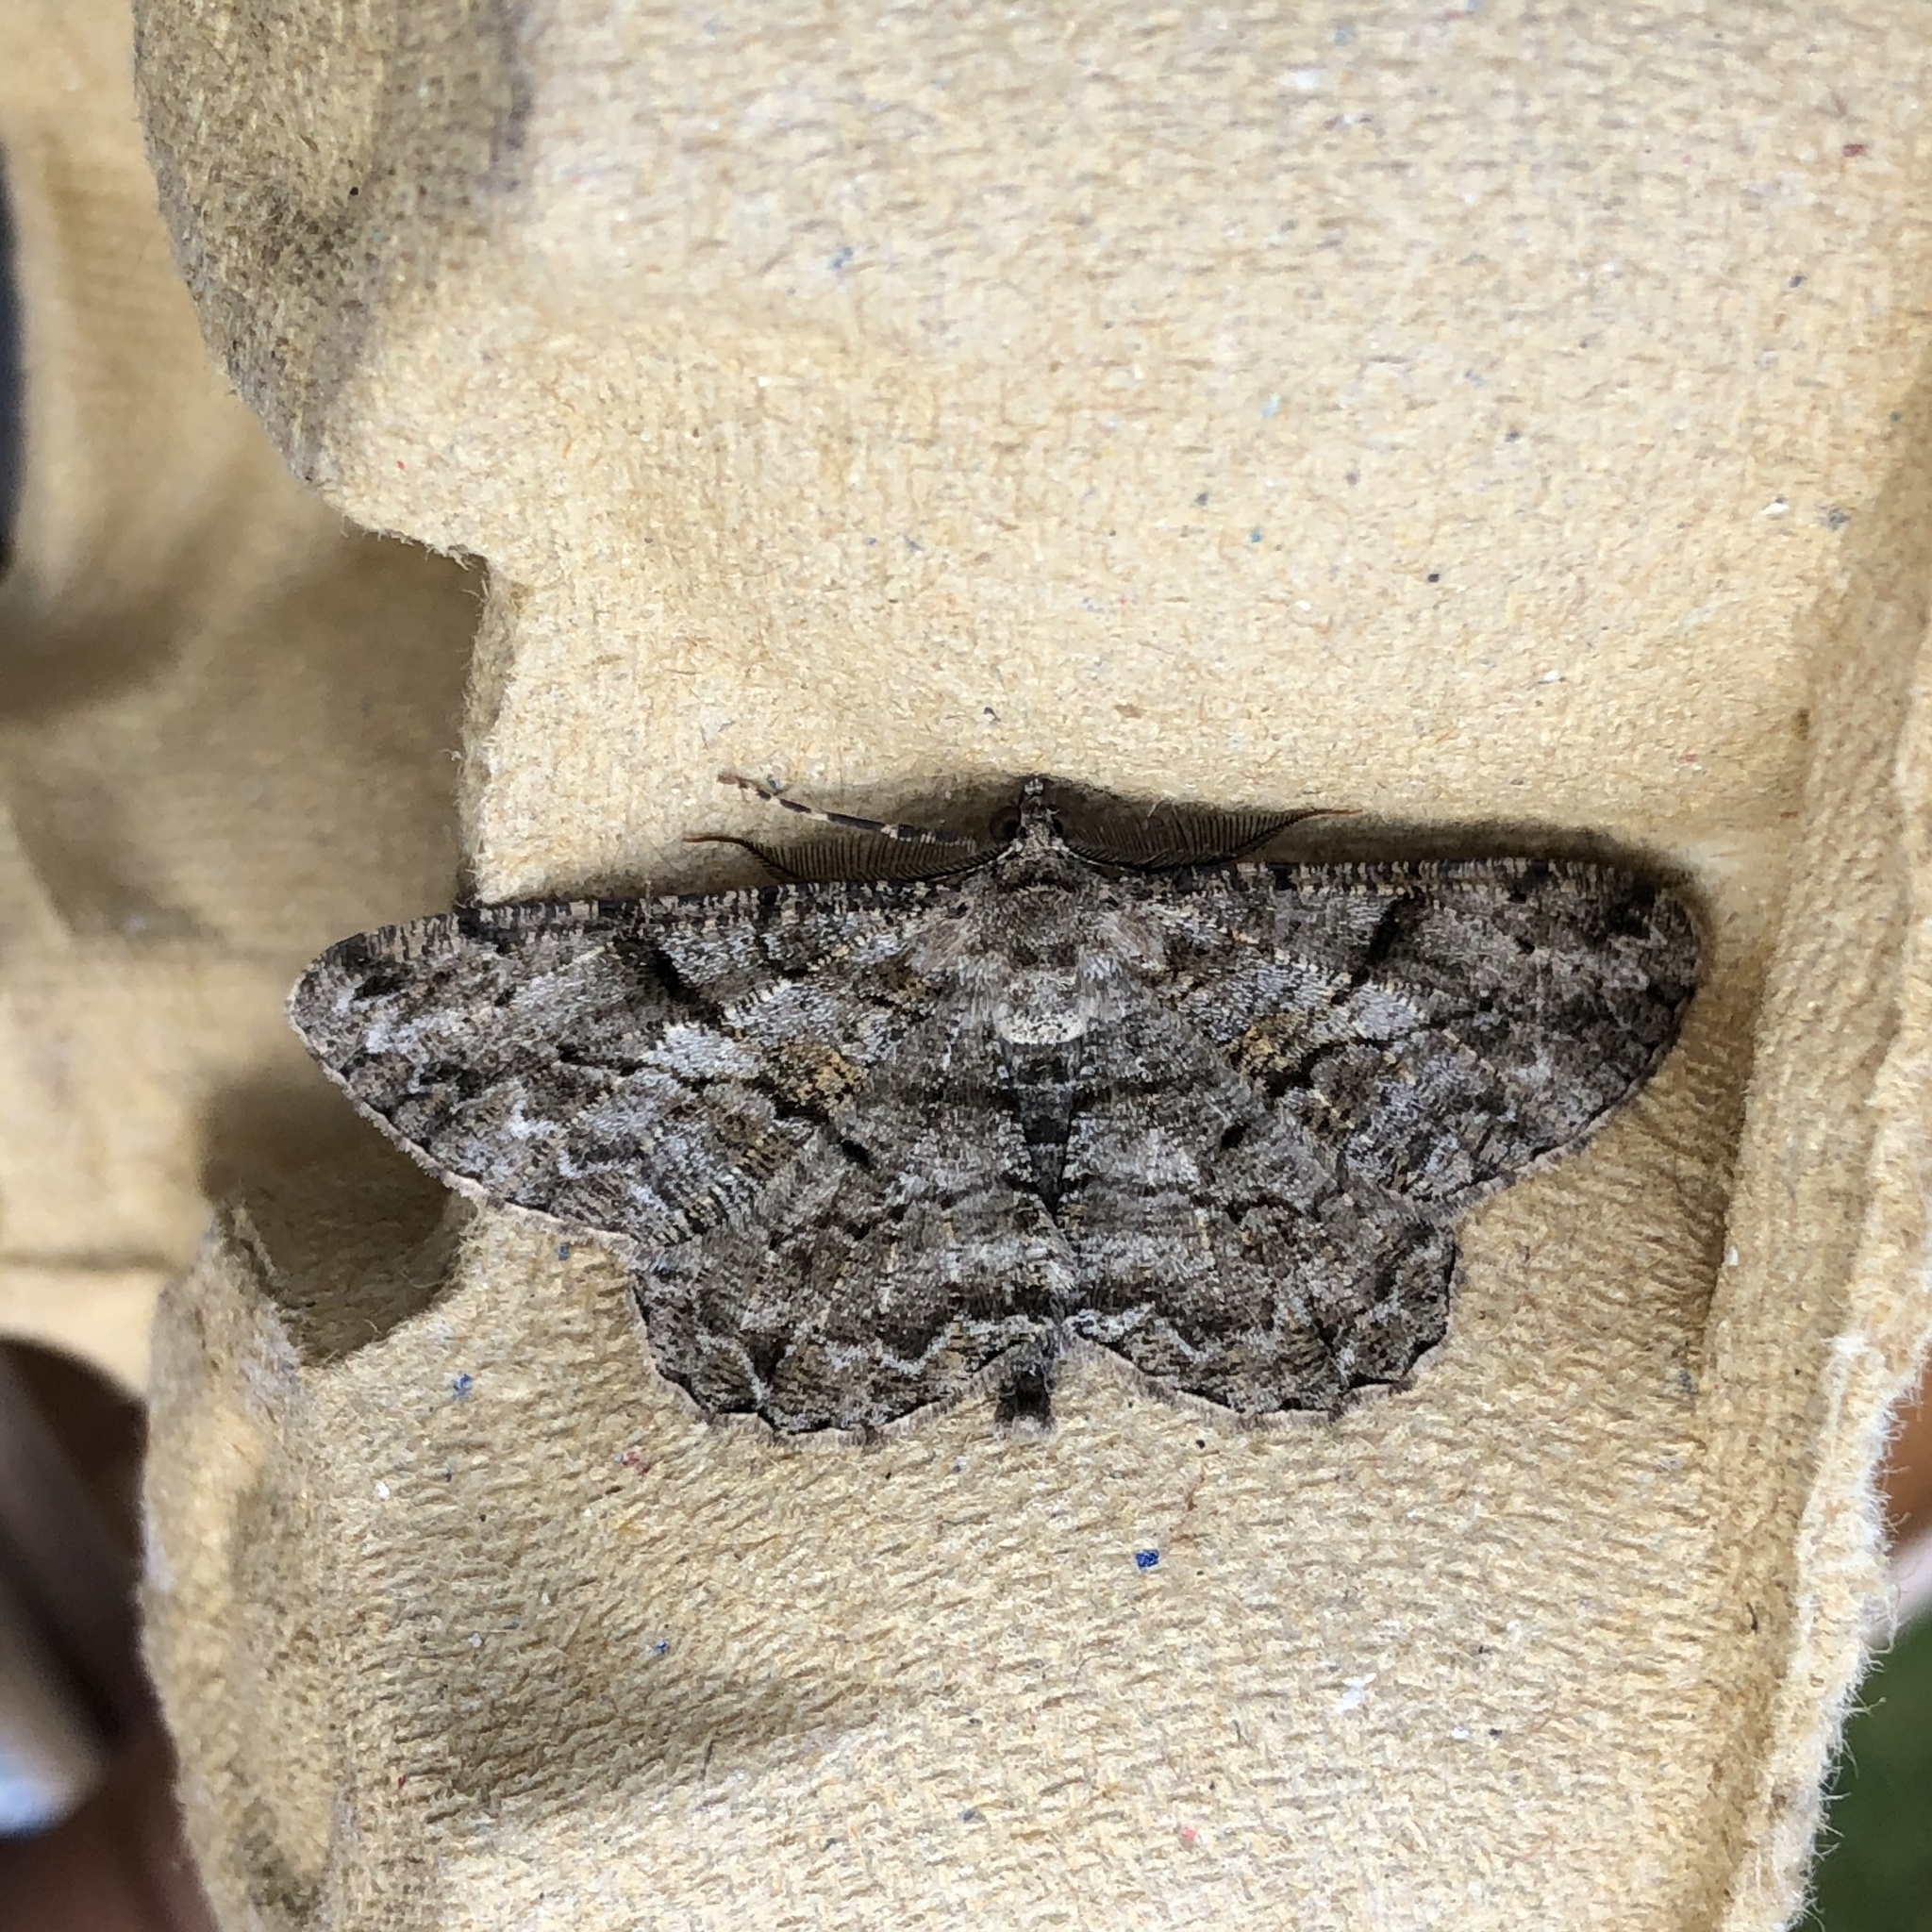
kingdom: Animalia
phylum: Arthropoda
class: Insecta
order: Lepidoptera
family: Geometridae
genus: Peribatodes
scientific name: Peribatodes rhomboidaria
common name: Willow beauty
